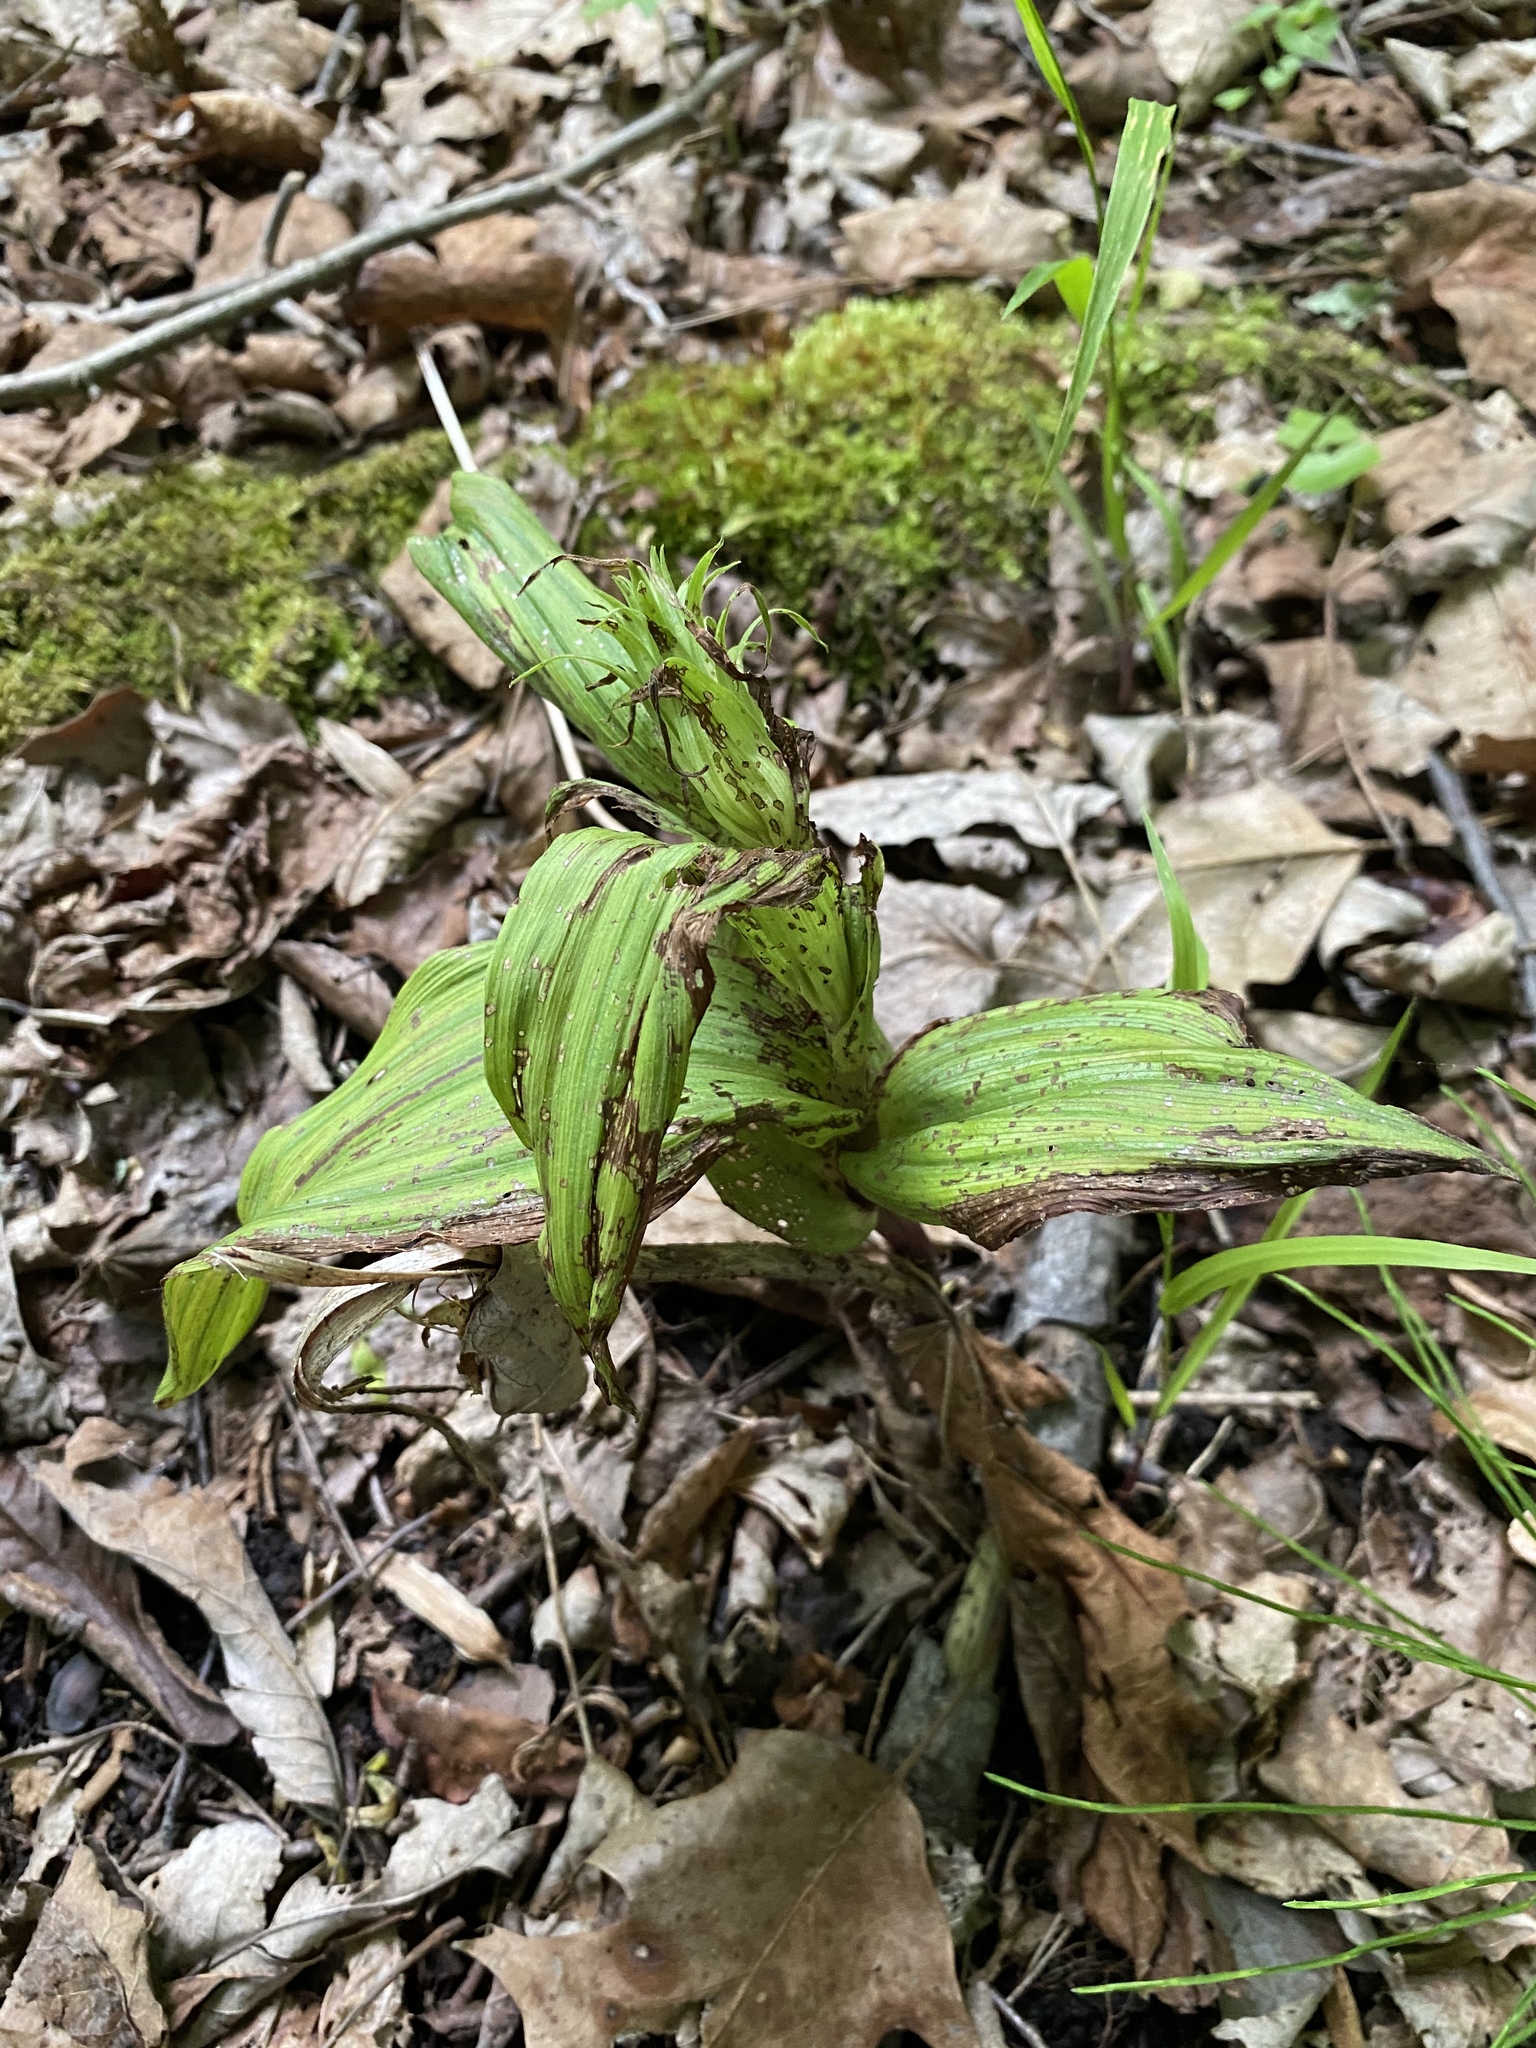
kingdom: Plantae
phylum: Tracheophyta
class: Liliopsida
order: Asparagales
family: Orchidaceae
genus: Epipactis
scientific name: Epipactis helleborine
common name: Broad-leaved helleborine
